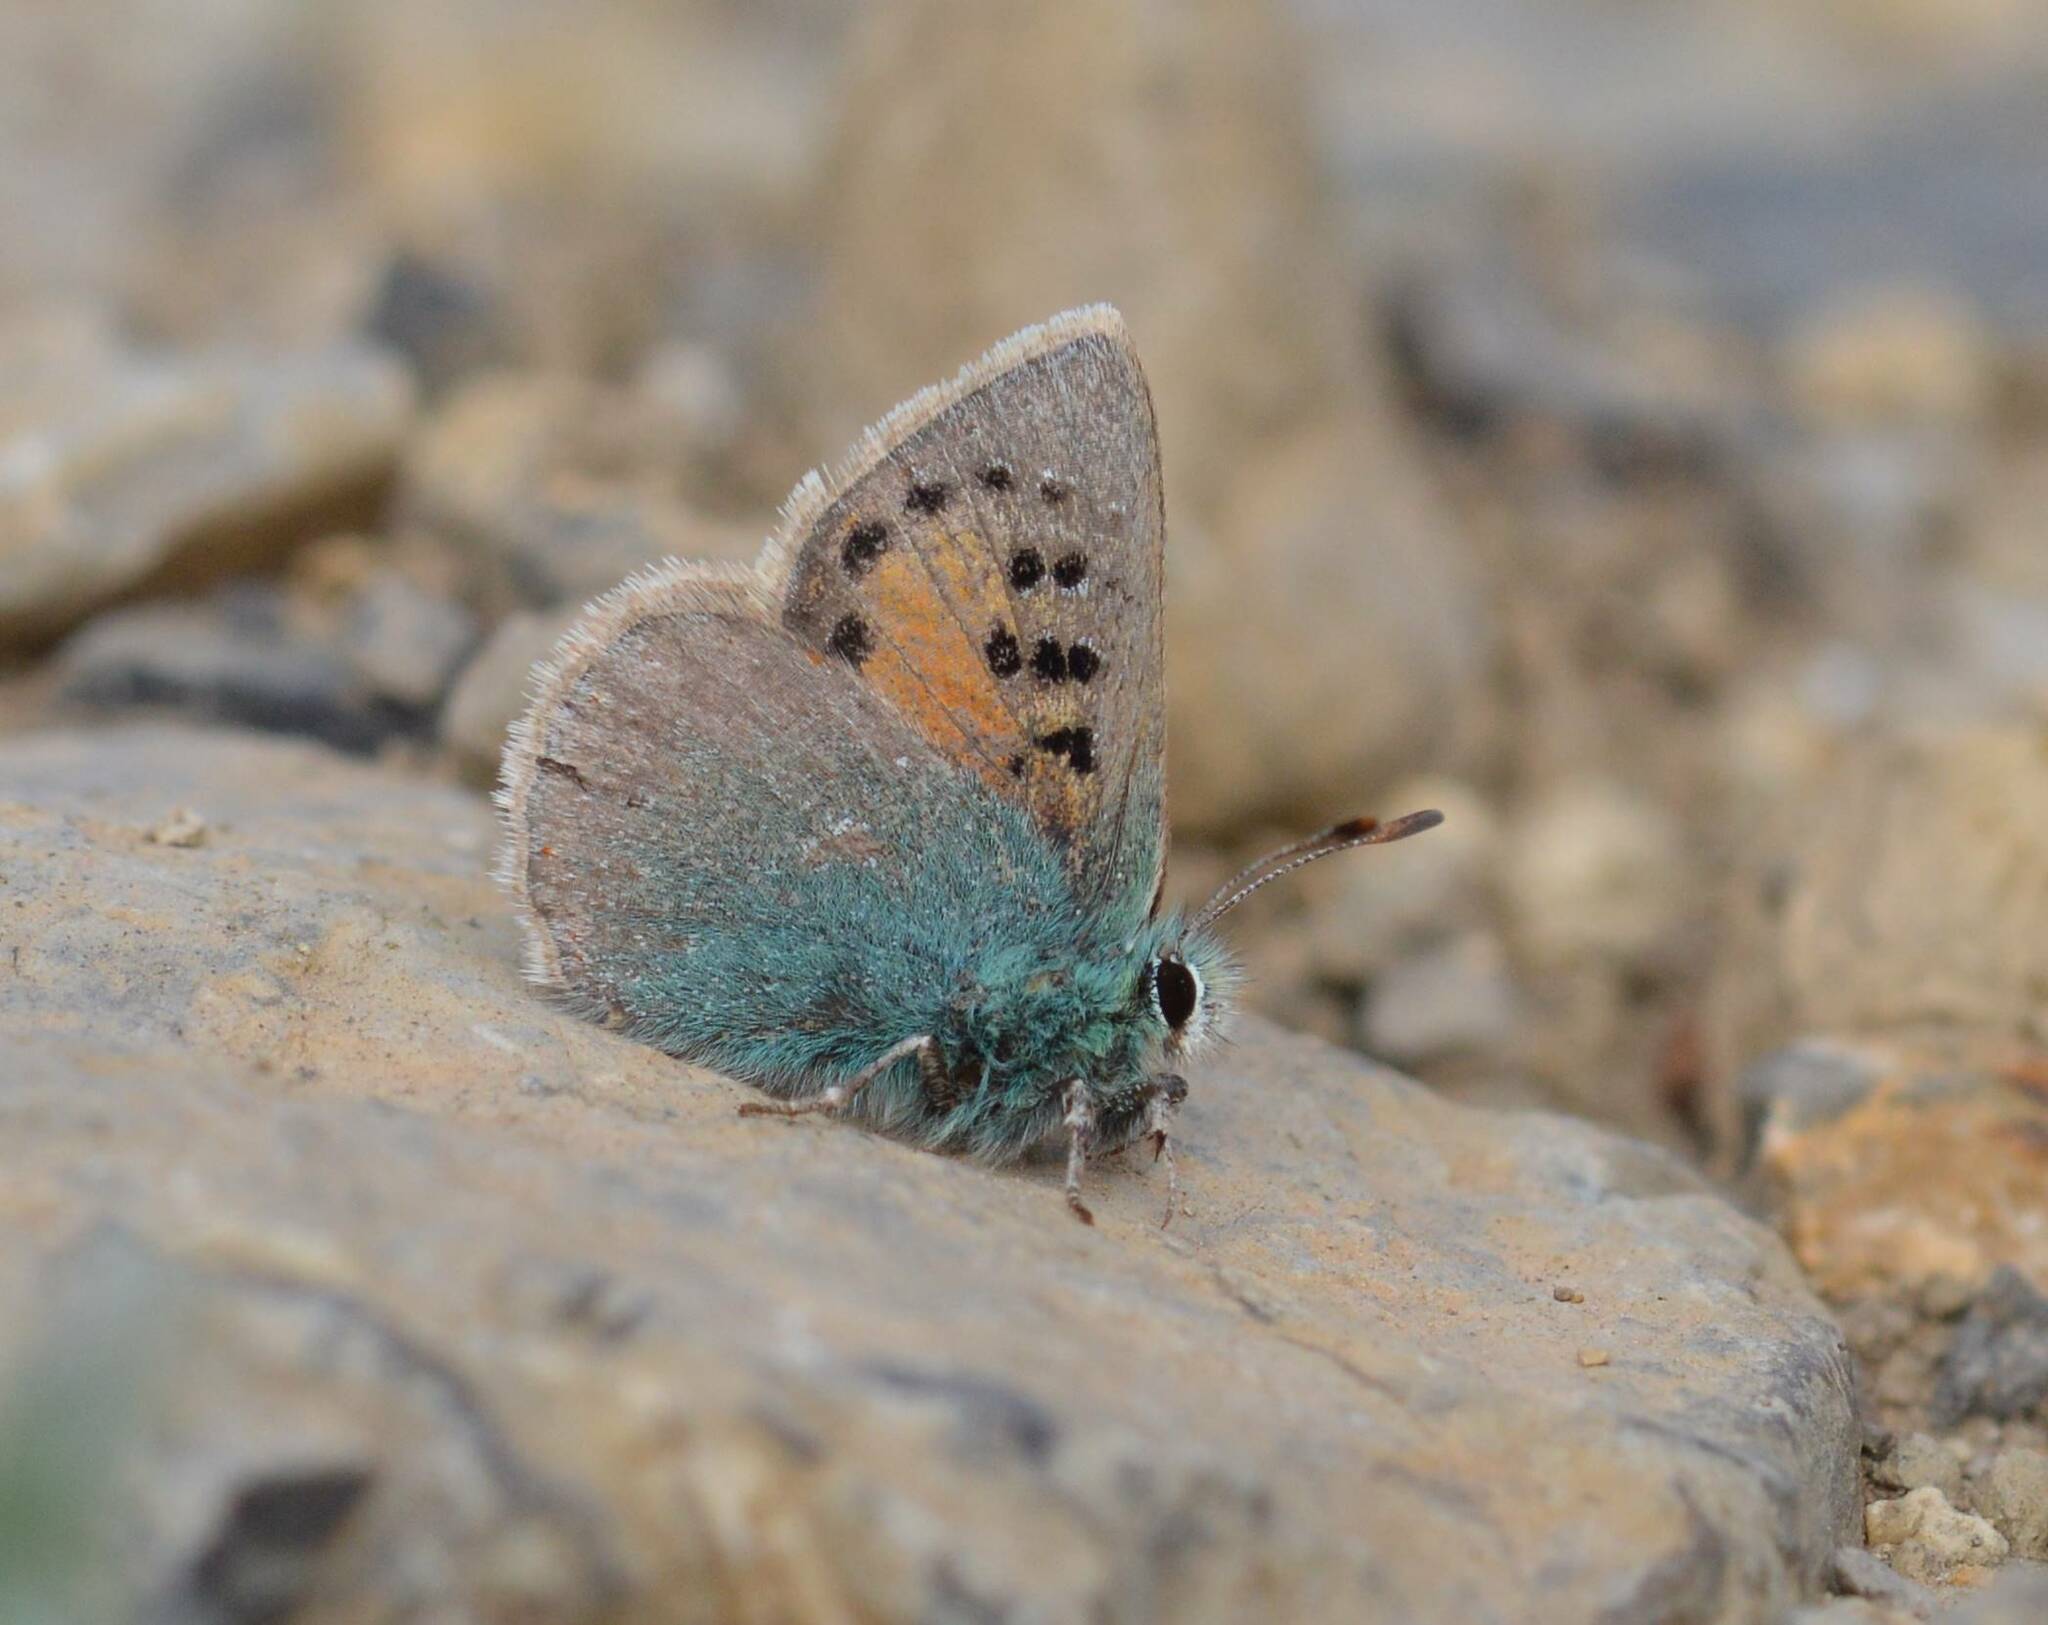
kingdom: Animalia
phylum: Arthropoda
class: Insecta
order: Lepidoptera
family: Lycaenidae
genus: Tomares
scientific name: Tomares ballus
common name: Provence hairstreak
